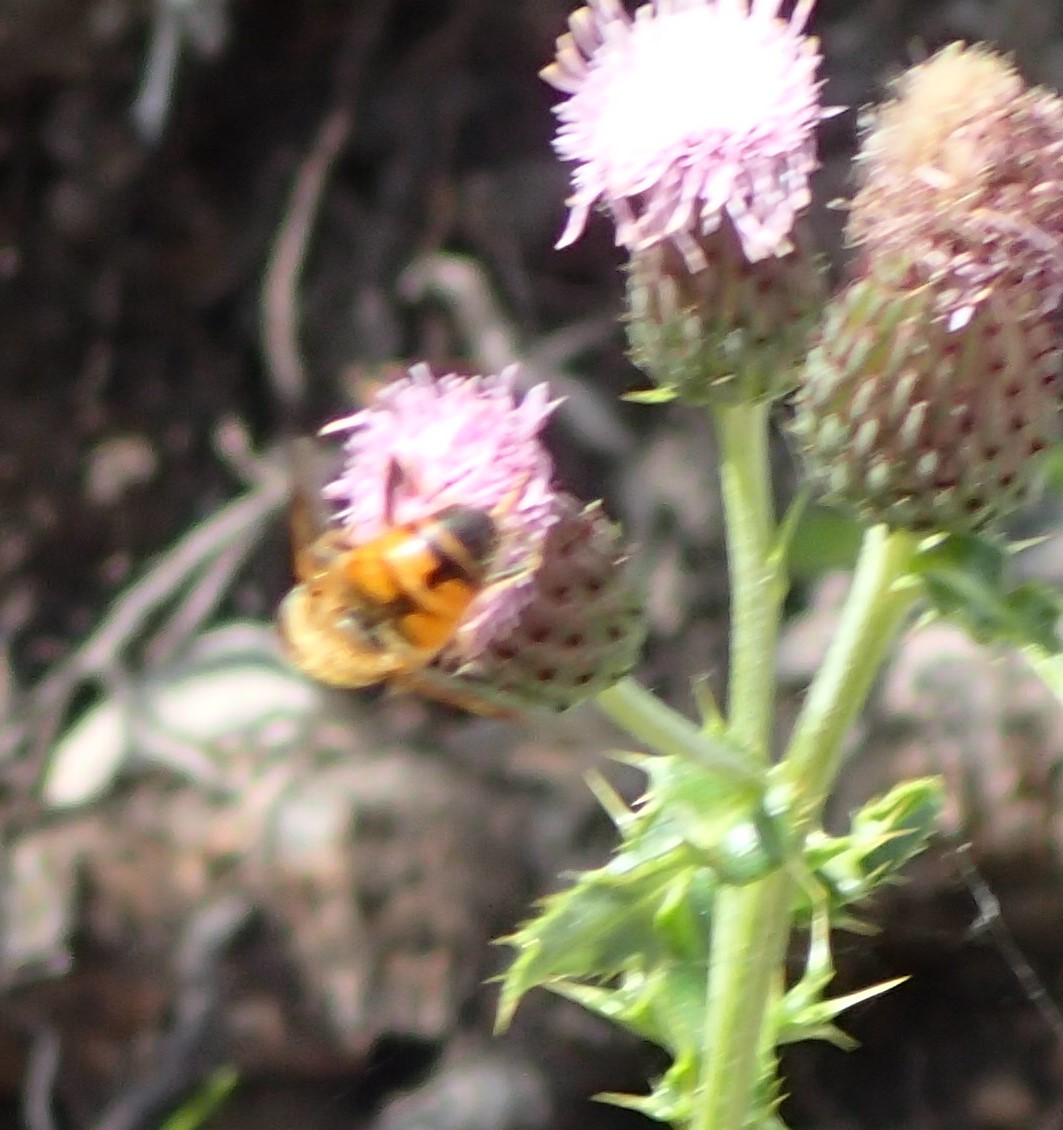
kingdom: Animalia
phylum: Arthropoda
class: Insecta
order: Diptera
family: Syrphidae
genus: Eristalis
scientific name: Eristalis tenax
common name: Drone fly
